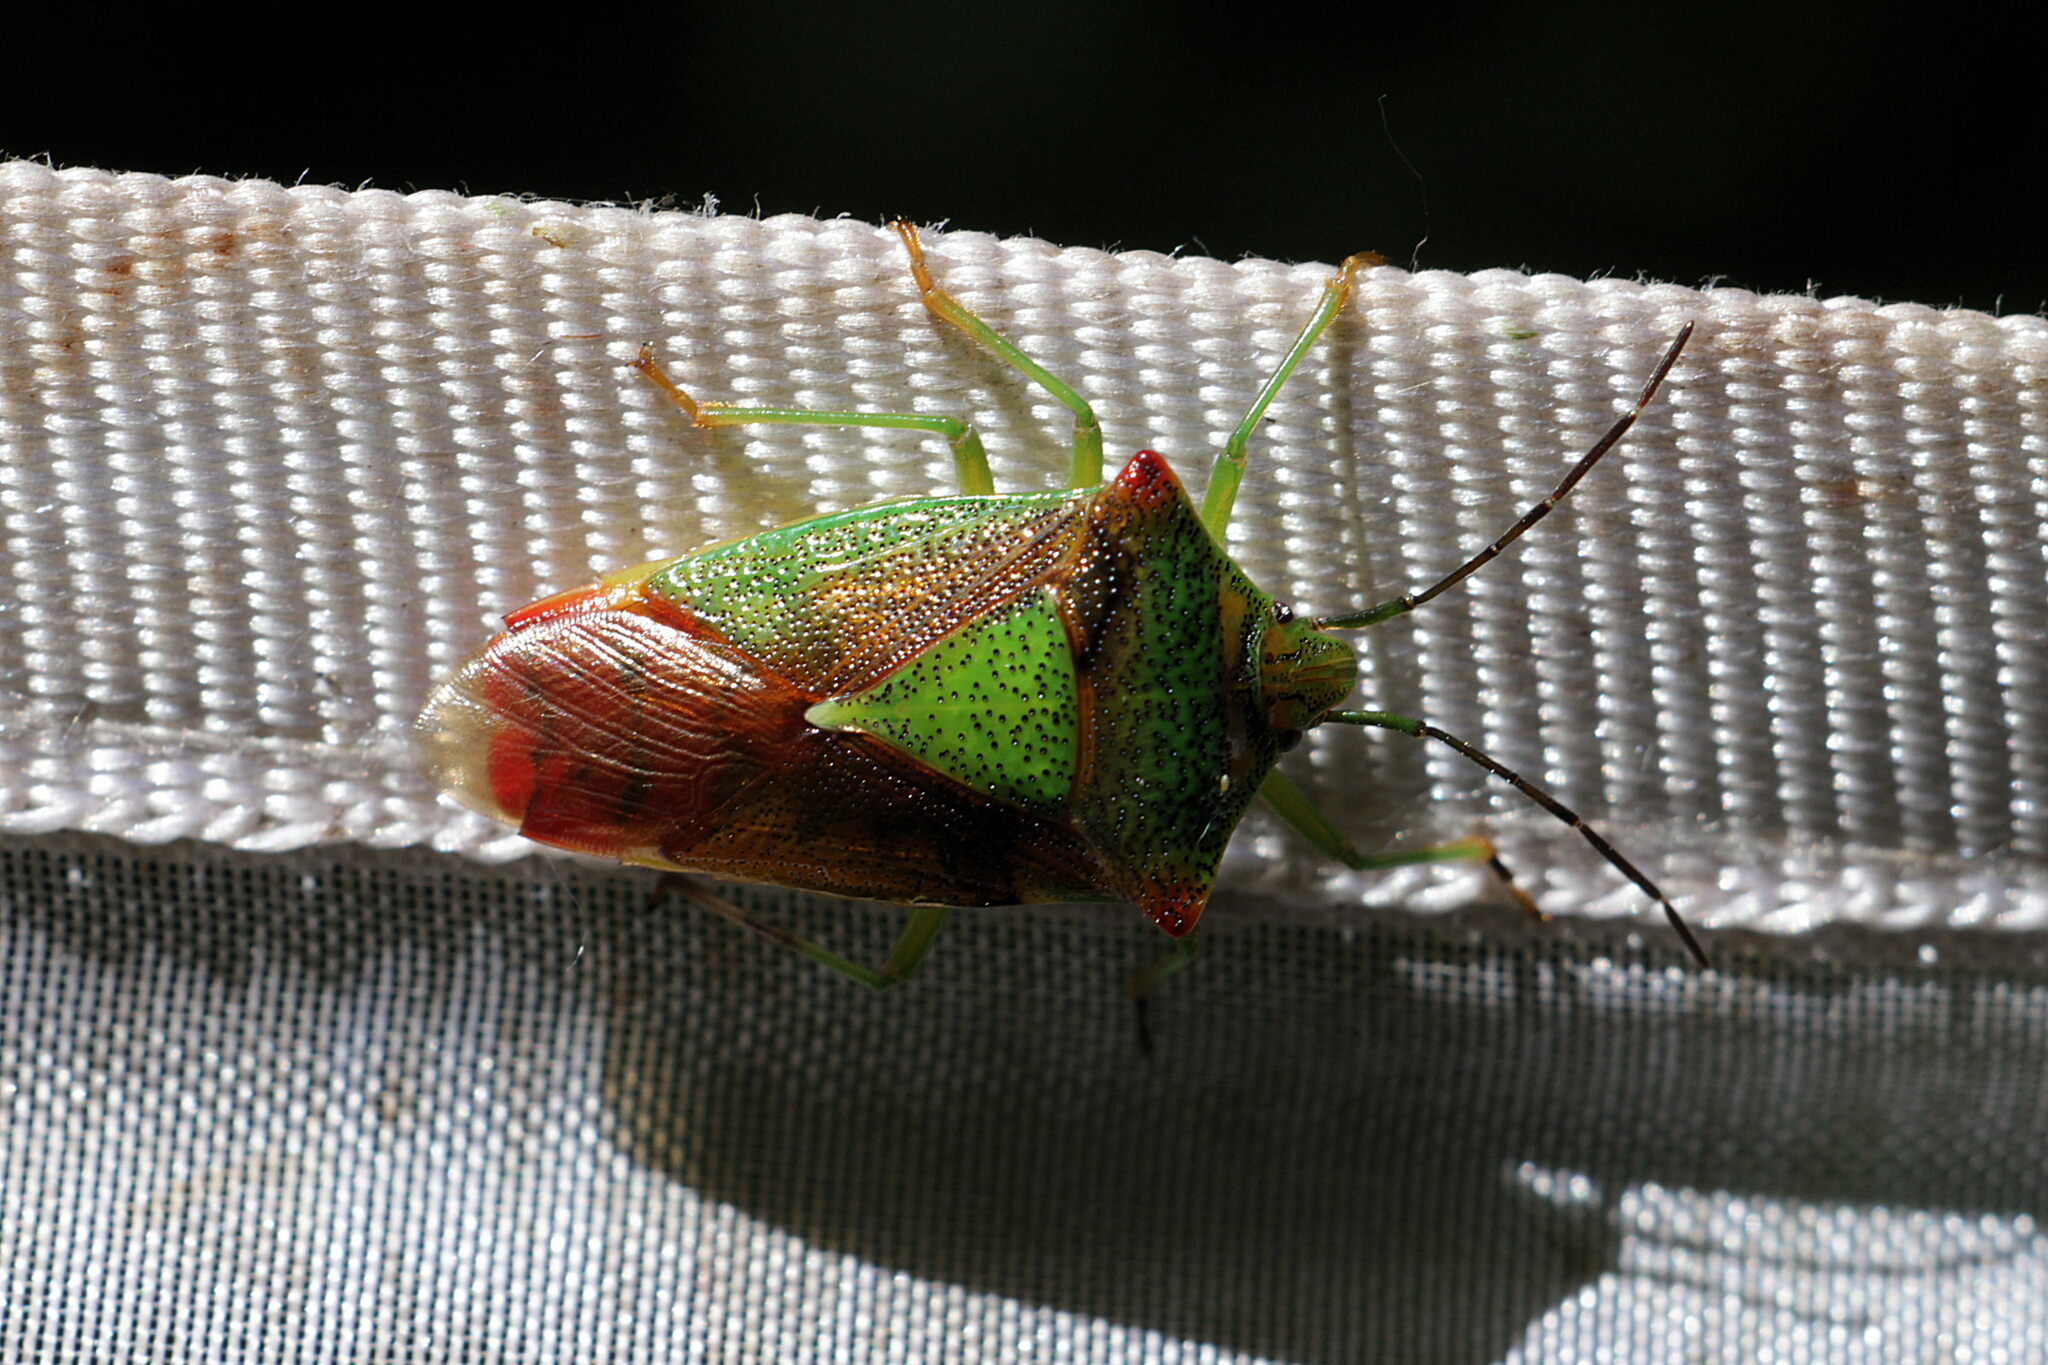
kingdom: Animalia
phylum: Arthropoda
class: Insecta
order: Hemiptera
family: Acanthosomatidae
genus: Acanthosoma
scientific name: Acanthosoma haemorrhoidale
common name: Hawthorn shieldbug
